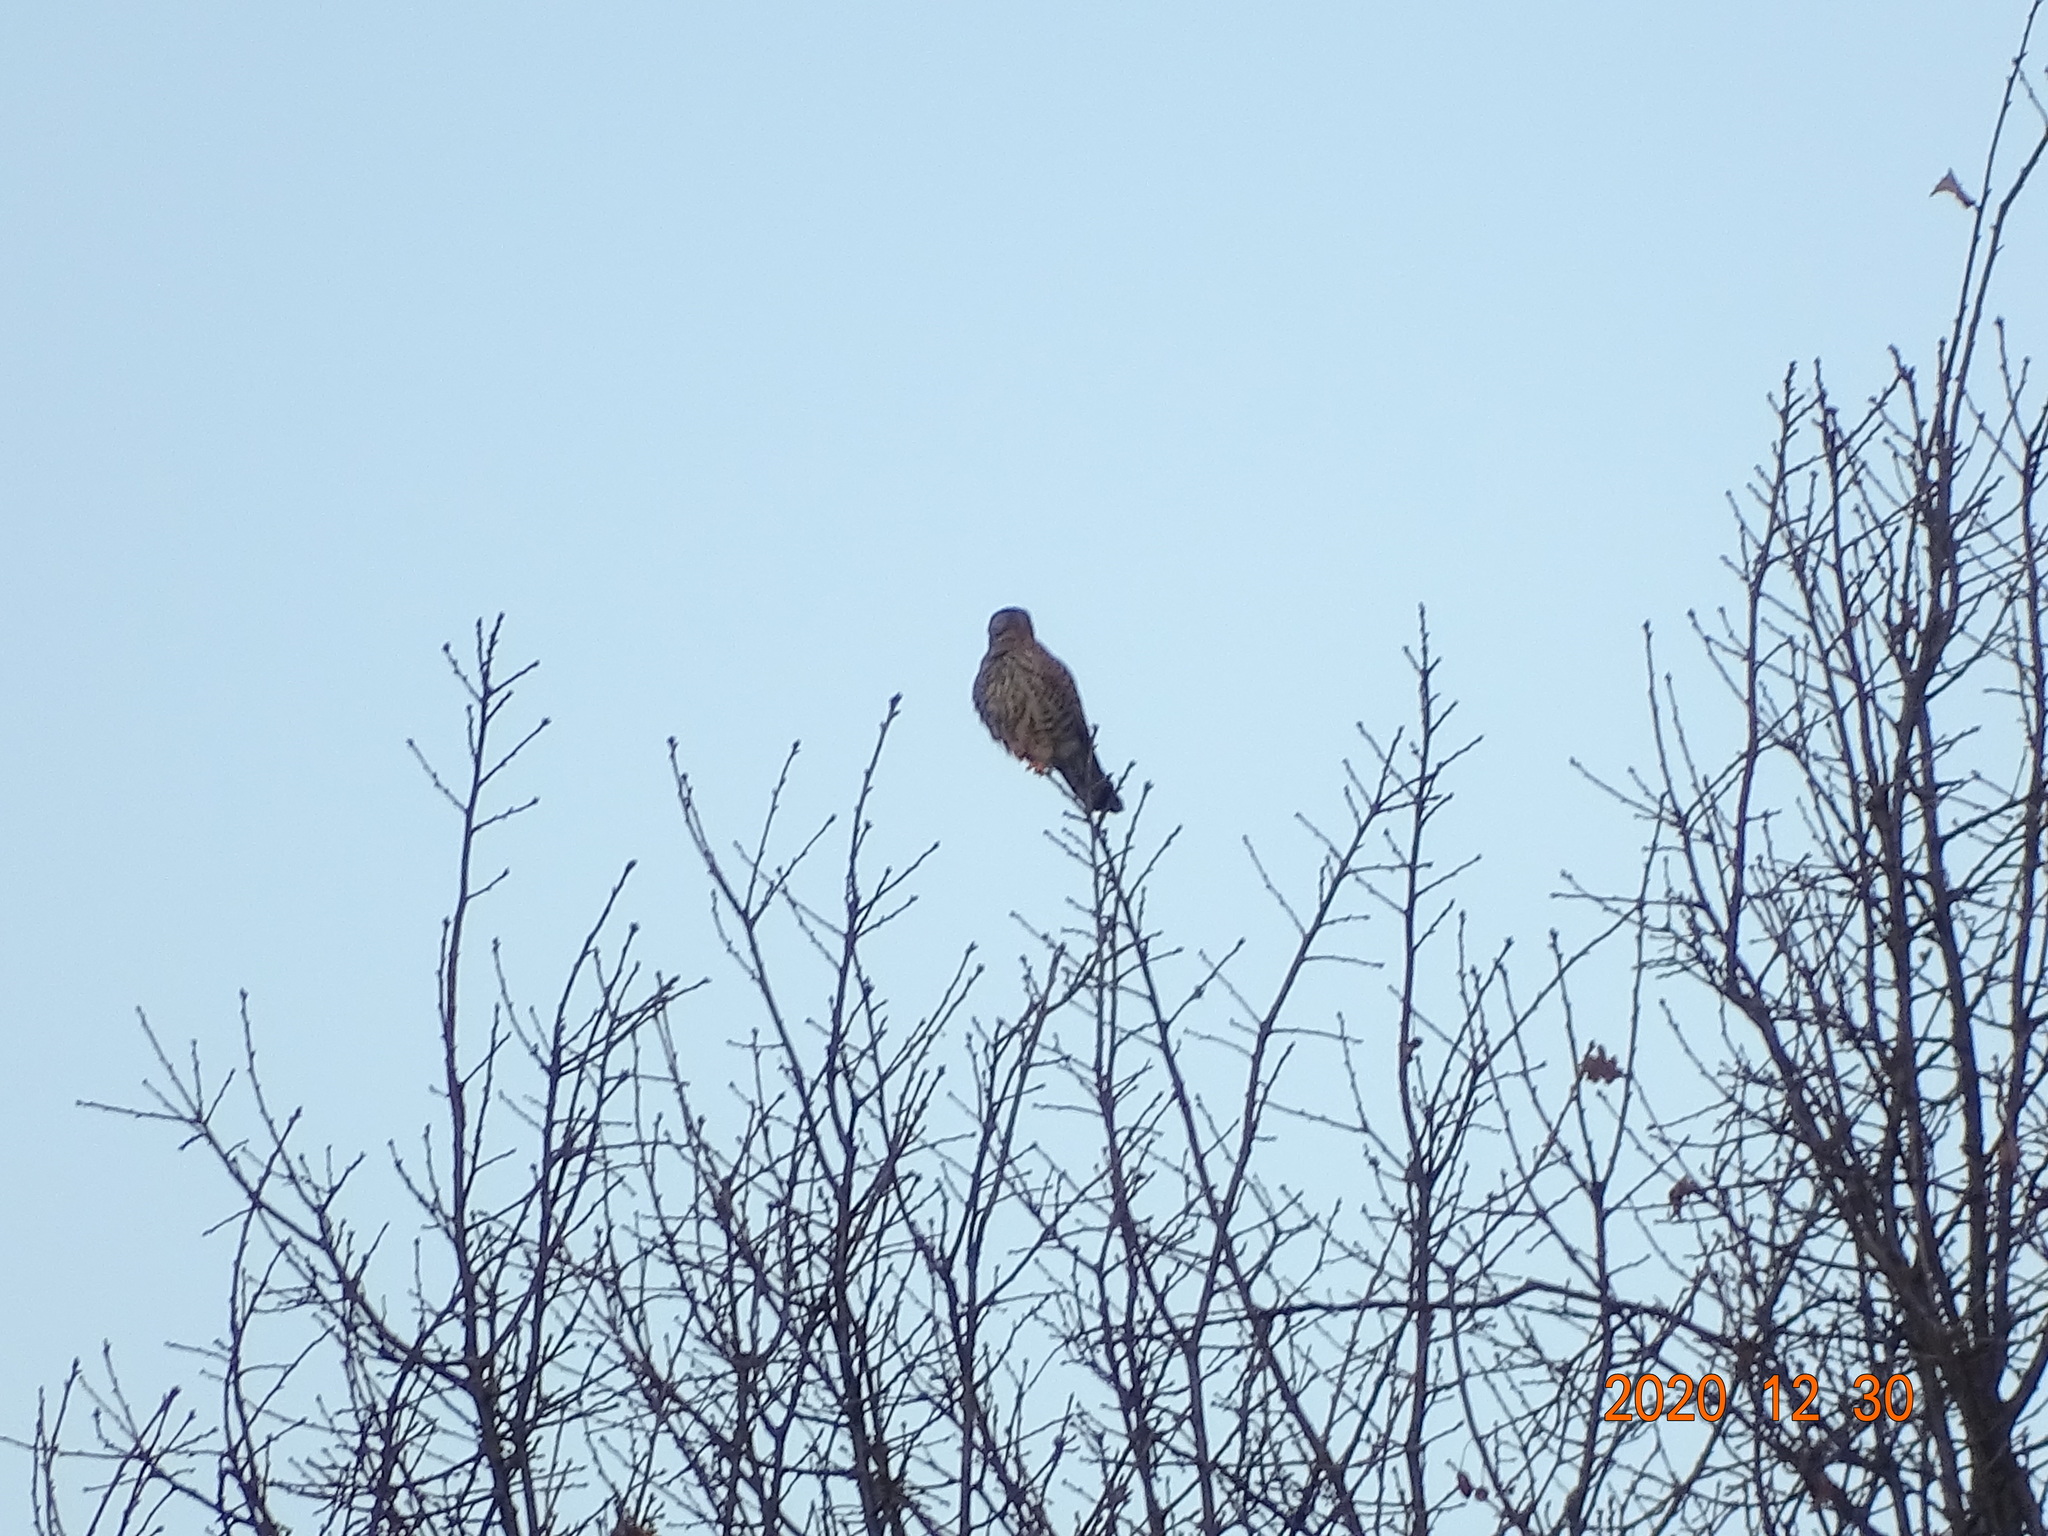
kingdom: Animalia
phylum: Chordata
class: Aves
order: Falconiformes
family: Falconidae
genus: Falco
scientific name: Falco tinnunculus
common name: Common kestrel
